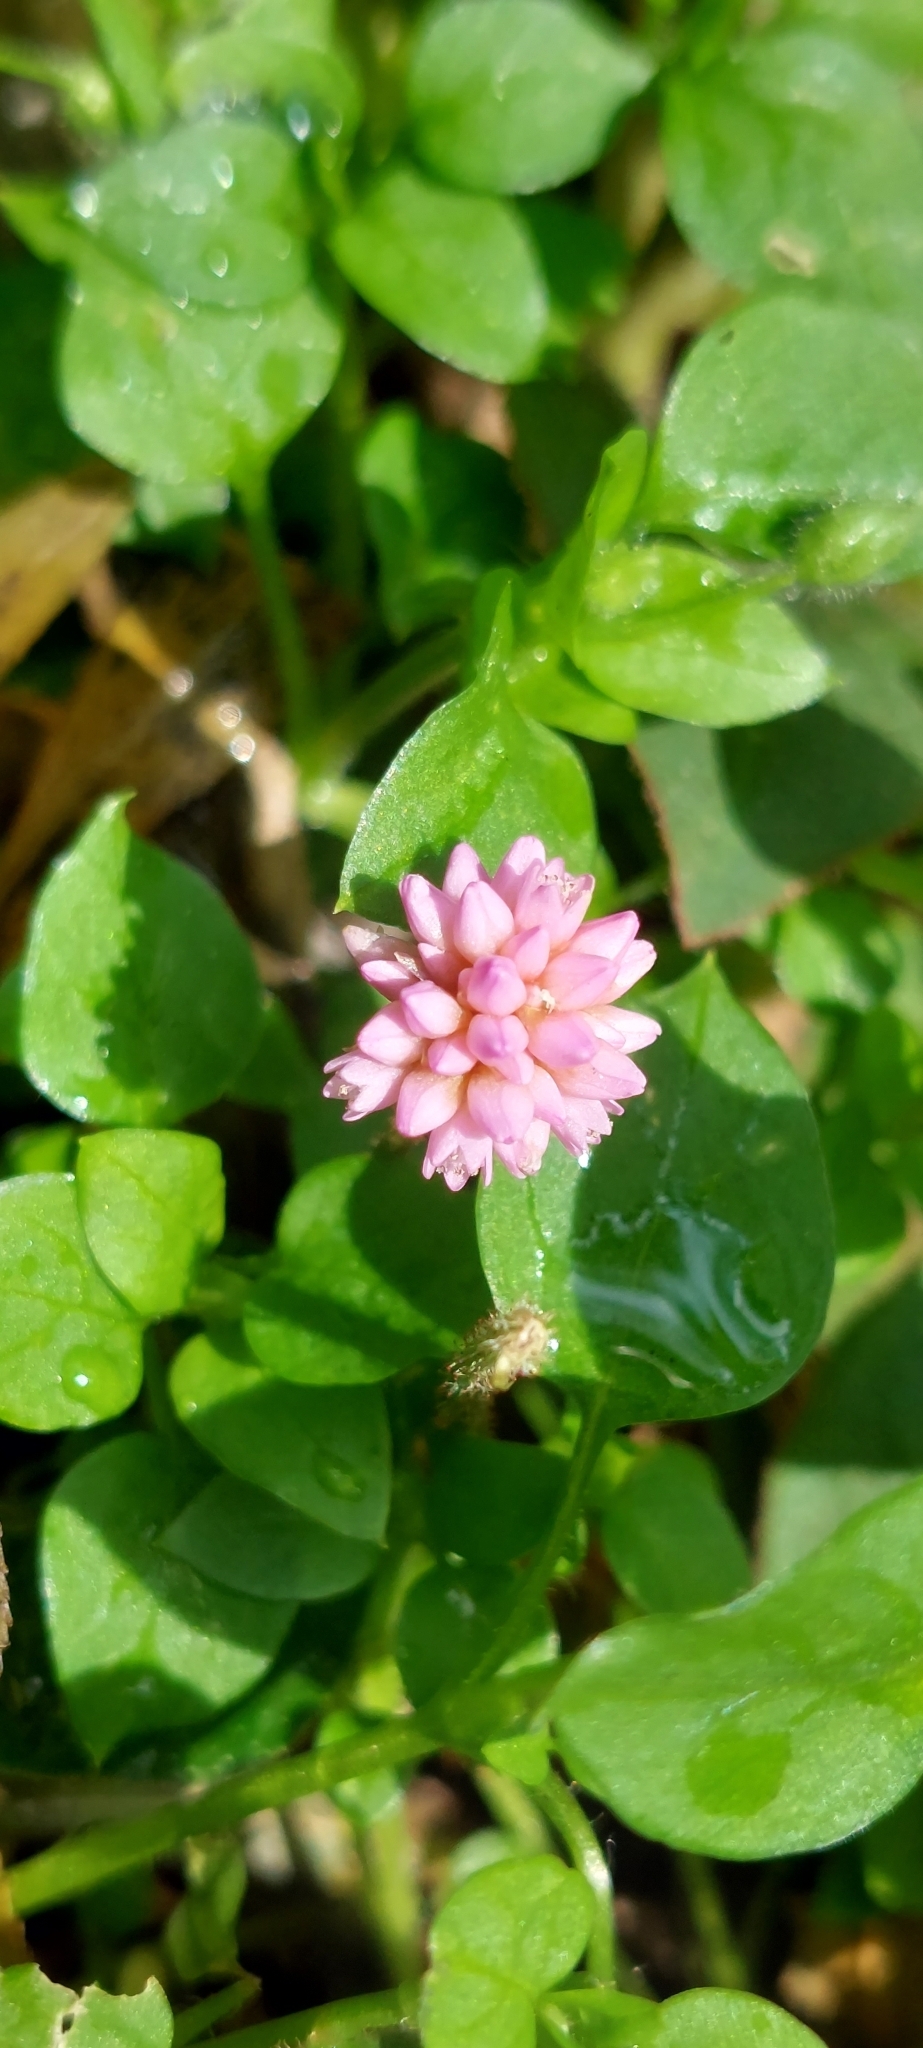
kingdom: Plantae
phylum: Tracheophyta
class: Magnoliopsida
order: Caryophyllales
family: Polygonaceae
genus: Persicaria
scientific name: Persicaria capitata
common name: Pinkhead smartweed
